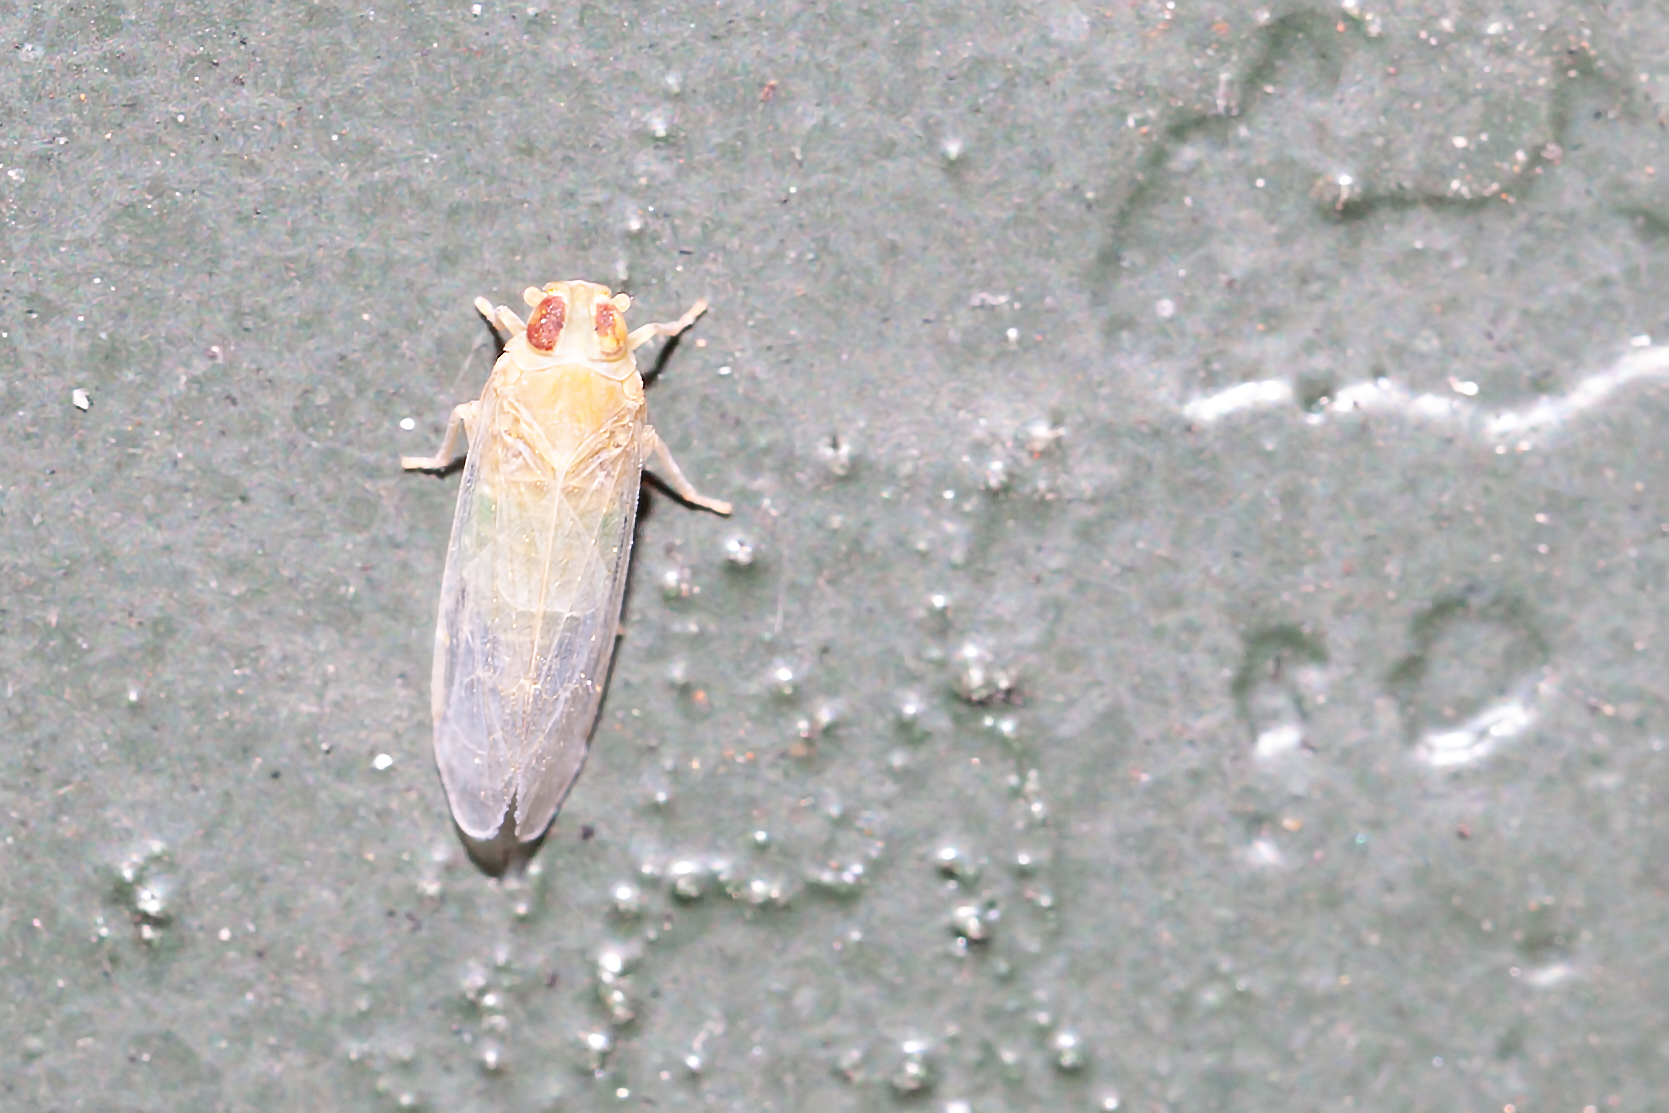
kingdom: Animalia
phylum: Arthropoda
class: Insecta
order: Hemiptera
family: Cixiidae
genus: Haplaxius
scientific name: Haplaxius crudus
